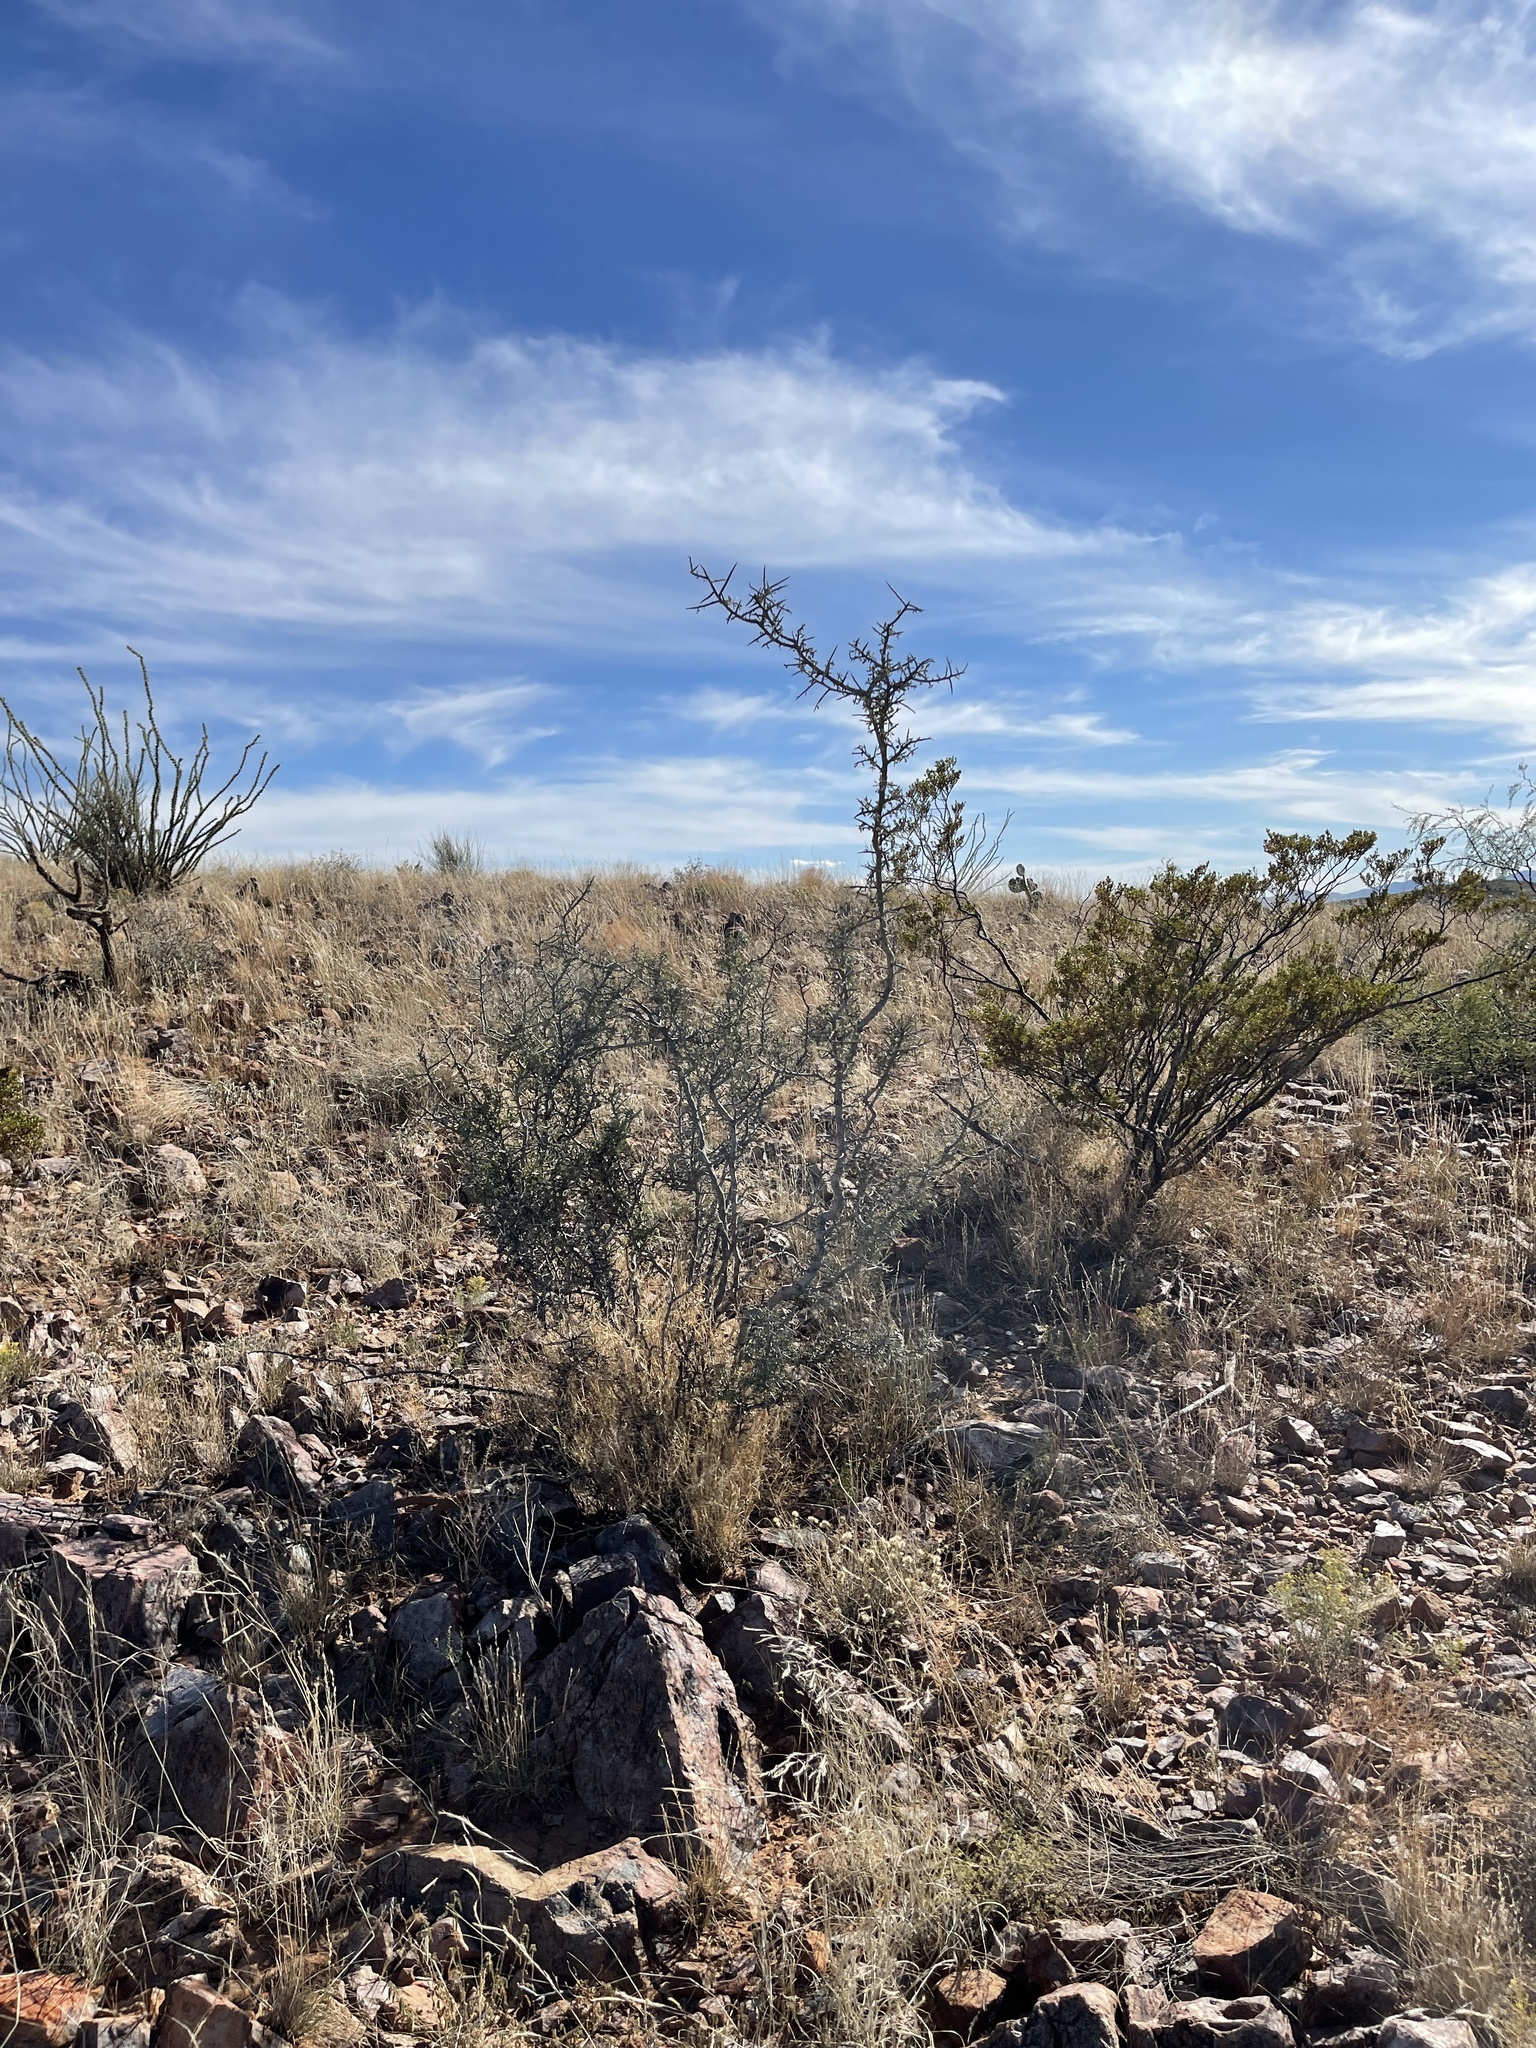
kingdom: Plantae
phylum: Tracheophyta
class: Magnoliopsida
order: Rosales
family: Rhamnaceae
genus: Sarcomphalus
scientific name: Sarcomphalus obtusifolius
